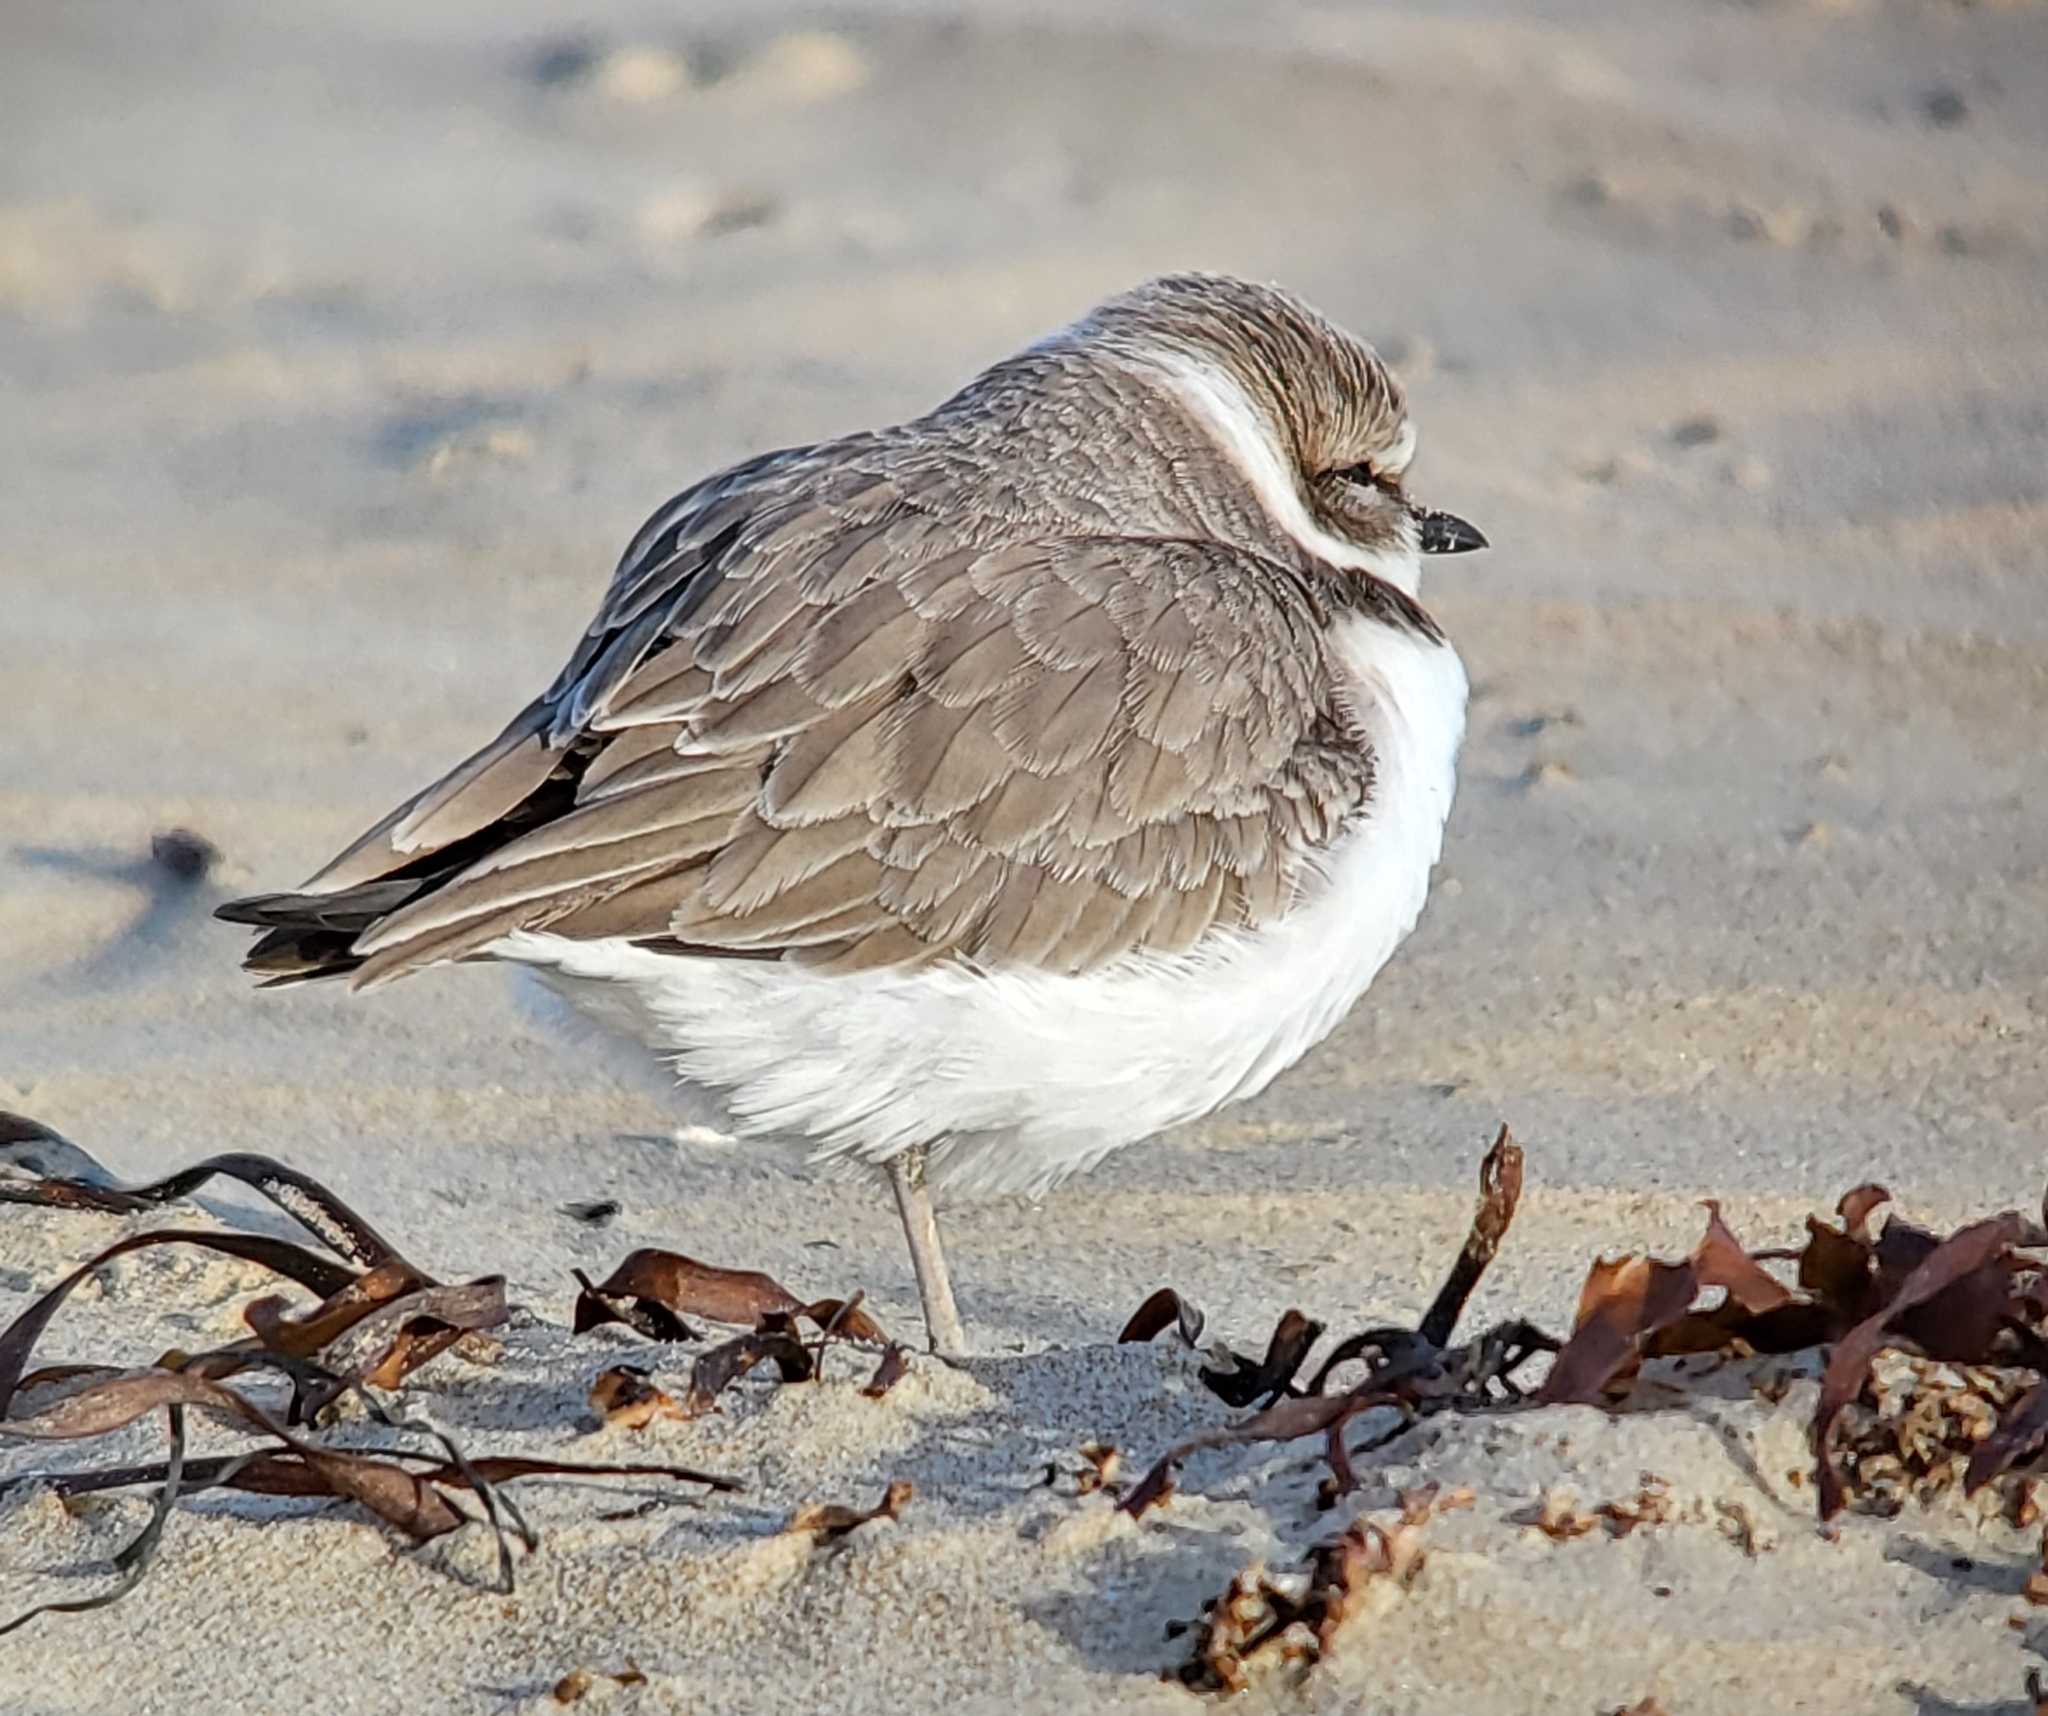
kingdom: Animalia
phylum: Chordata
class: Aves
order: Charadriiformes
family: Charadriidae
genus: Anarhynchus
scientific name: Anarhynchus
